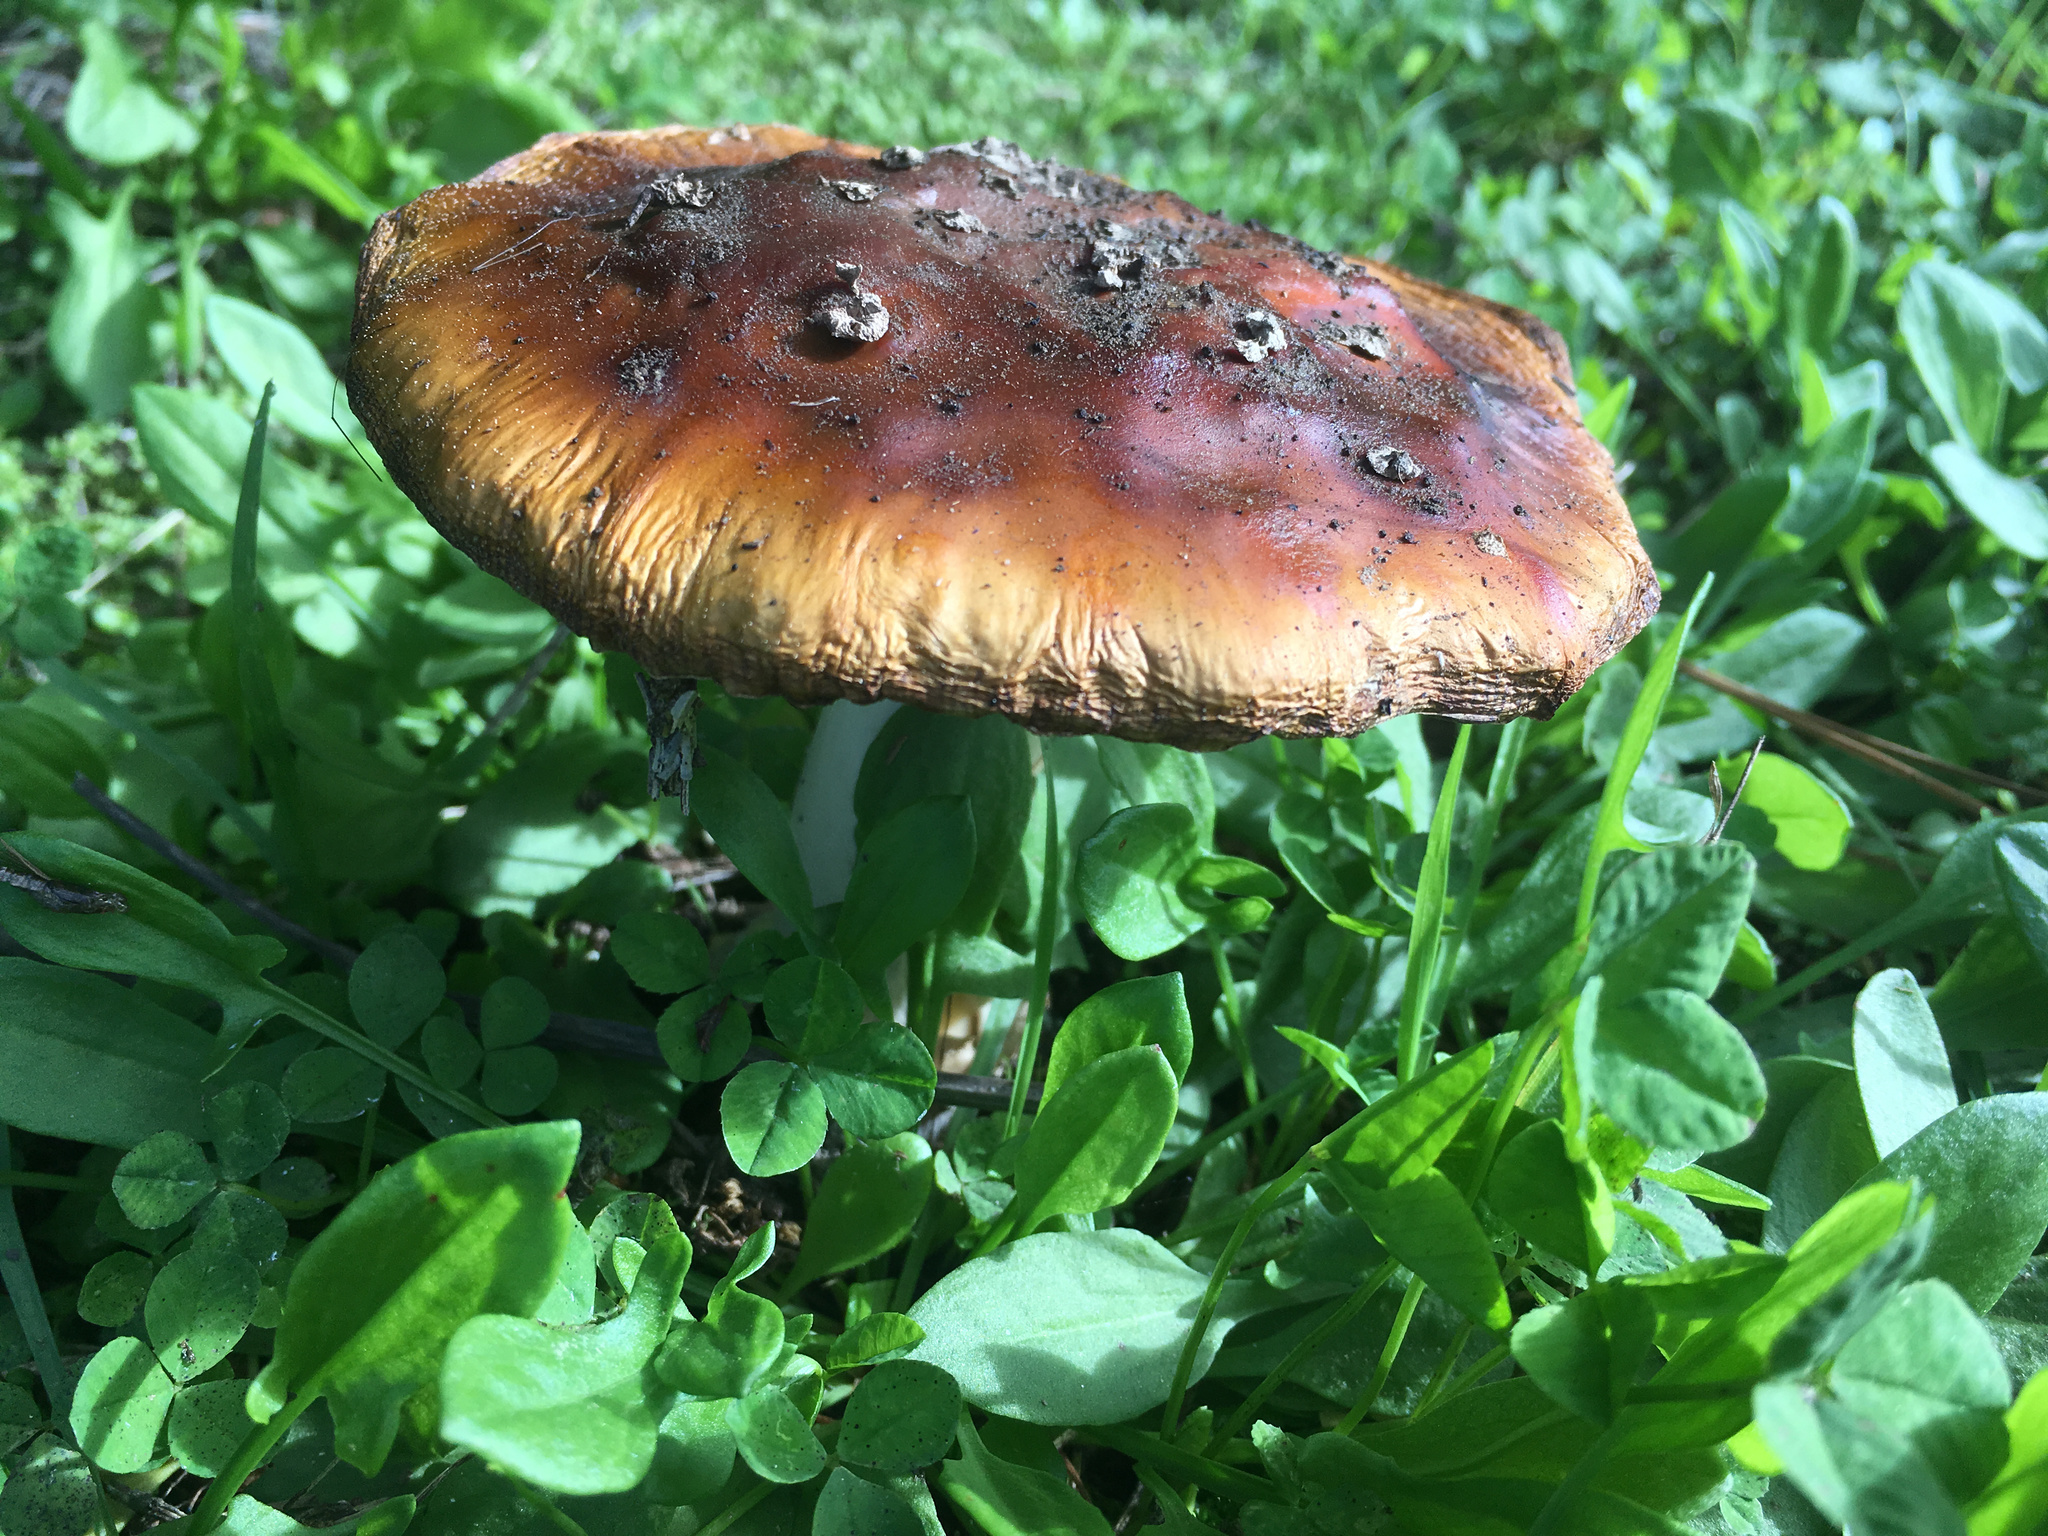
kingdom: Fungi
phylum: Basidiomycota
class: Agaricomycetes
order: Agaricales
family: Amanitaceae
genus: Amanita
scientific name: Amanita muscaria
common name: Fly agaric
